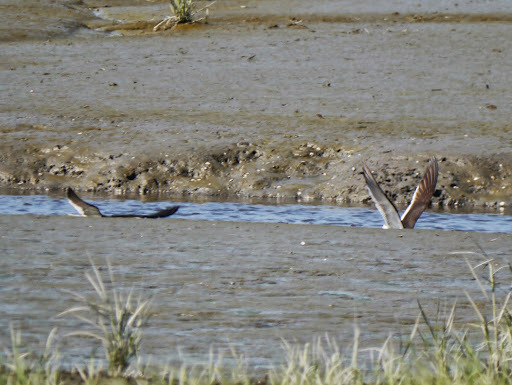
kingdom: Animalia
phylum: Chordata
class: Aves
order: Charadriiformes
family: Laridae
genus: Rynchops
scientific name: Rynchops niger
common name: Black skimmer
